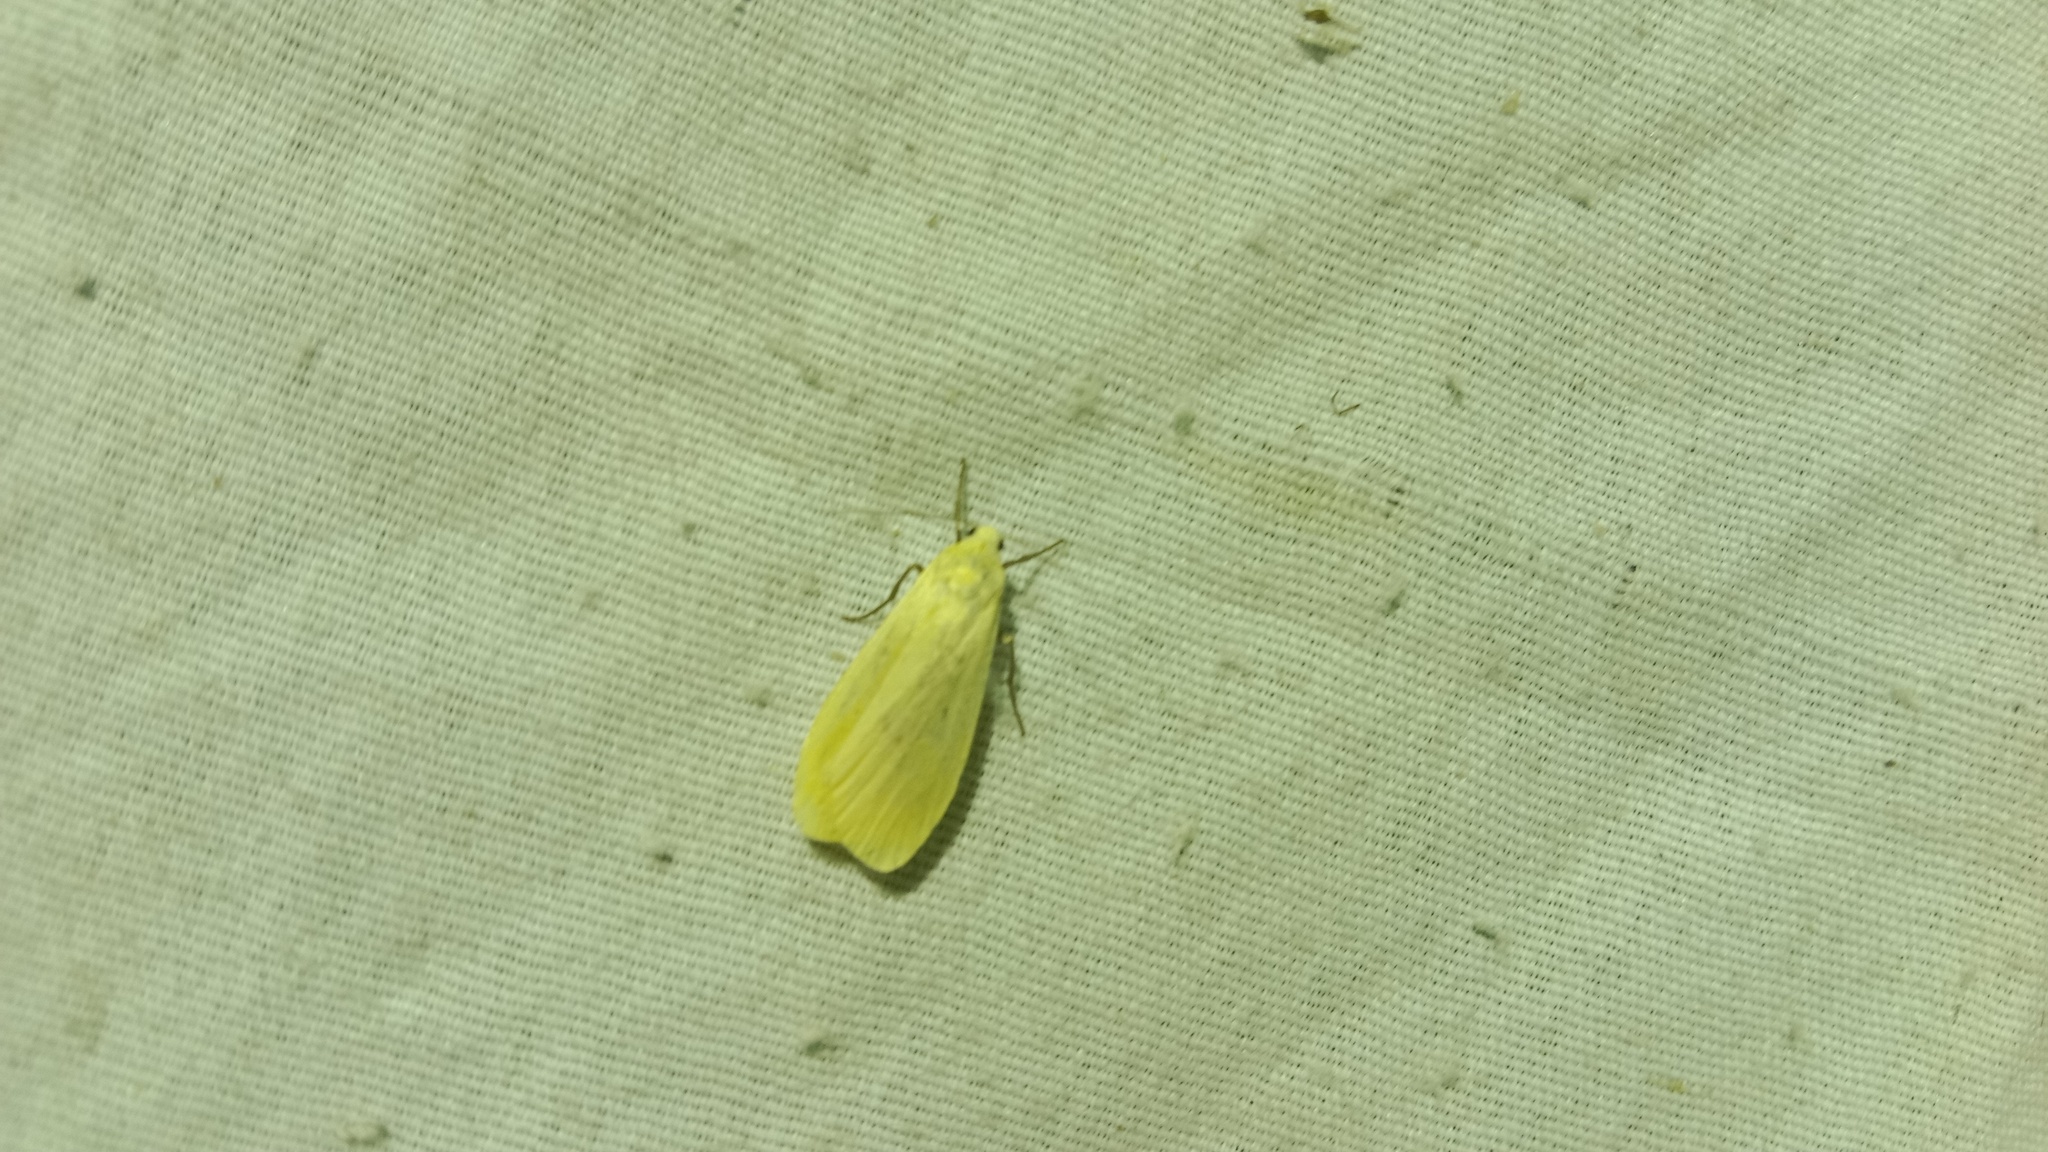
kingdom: Animalia
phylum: Arthropoda
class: Insecta
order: Lepidoptera
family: Erebidae
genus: Wittia
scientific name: Wittia sororcula
